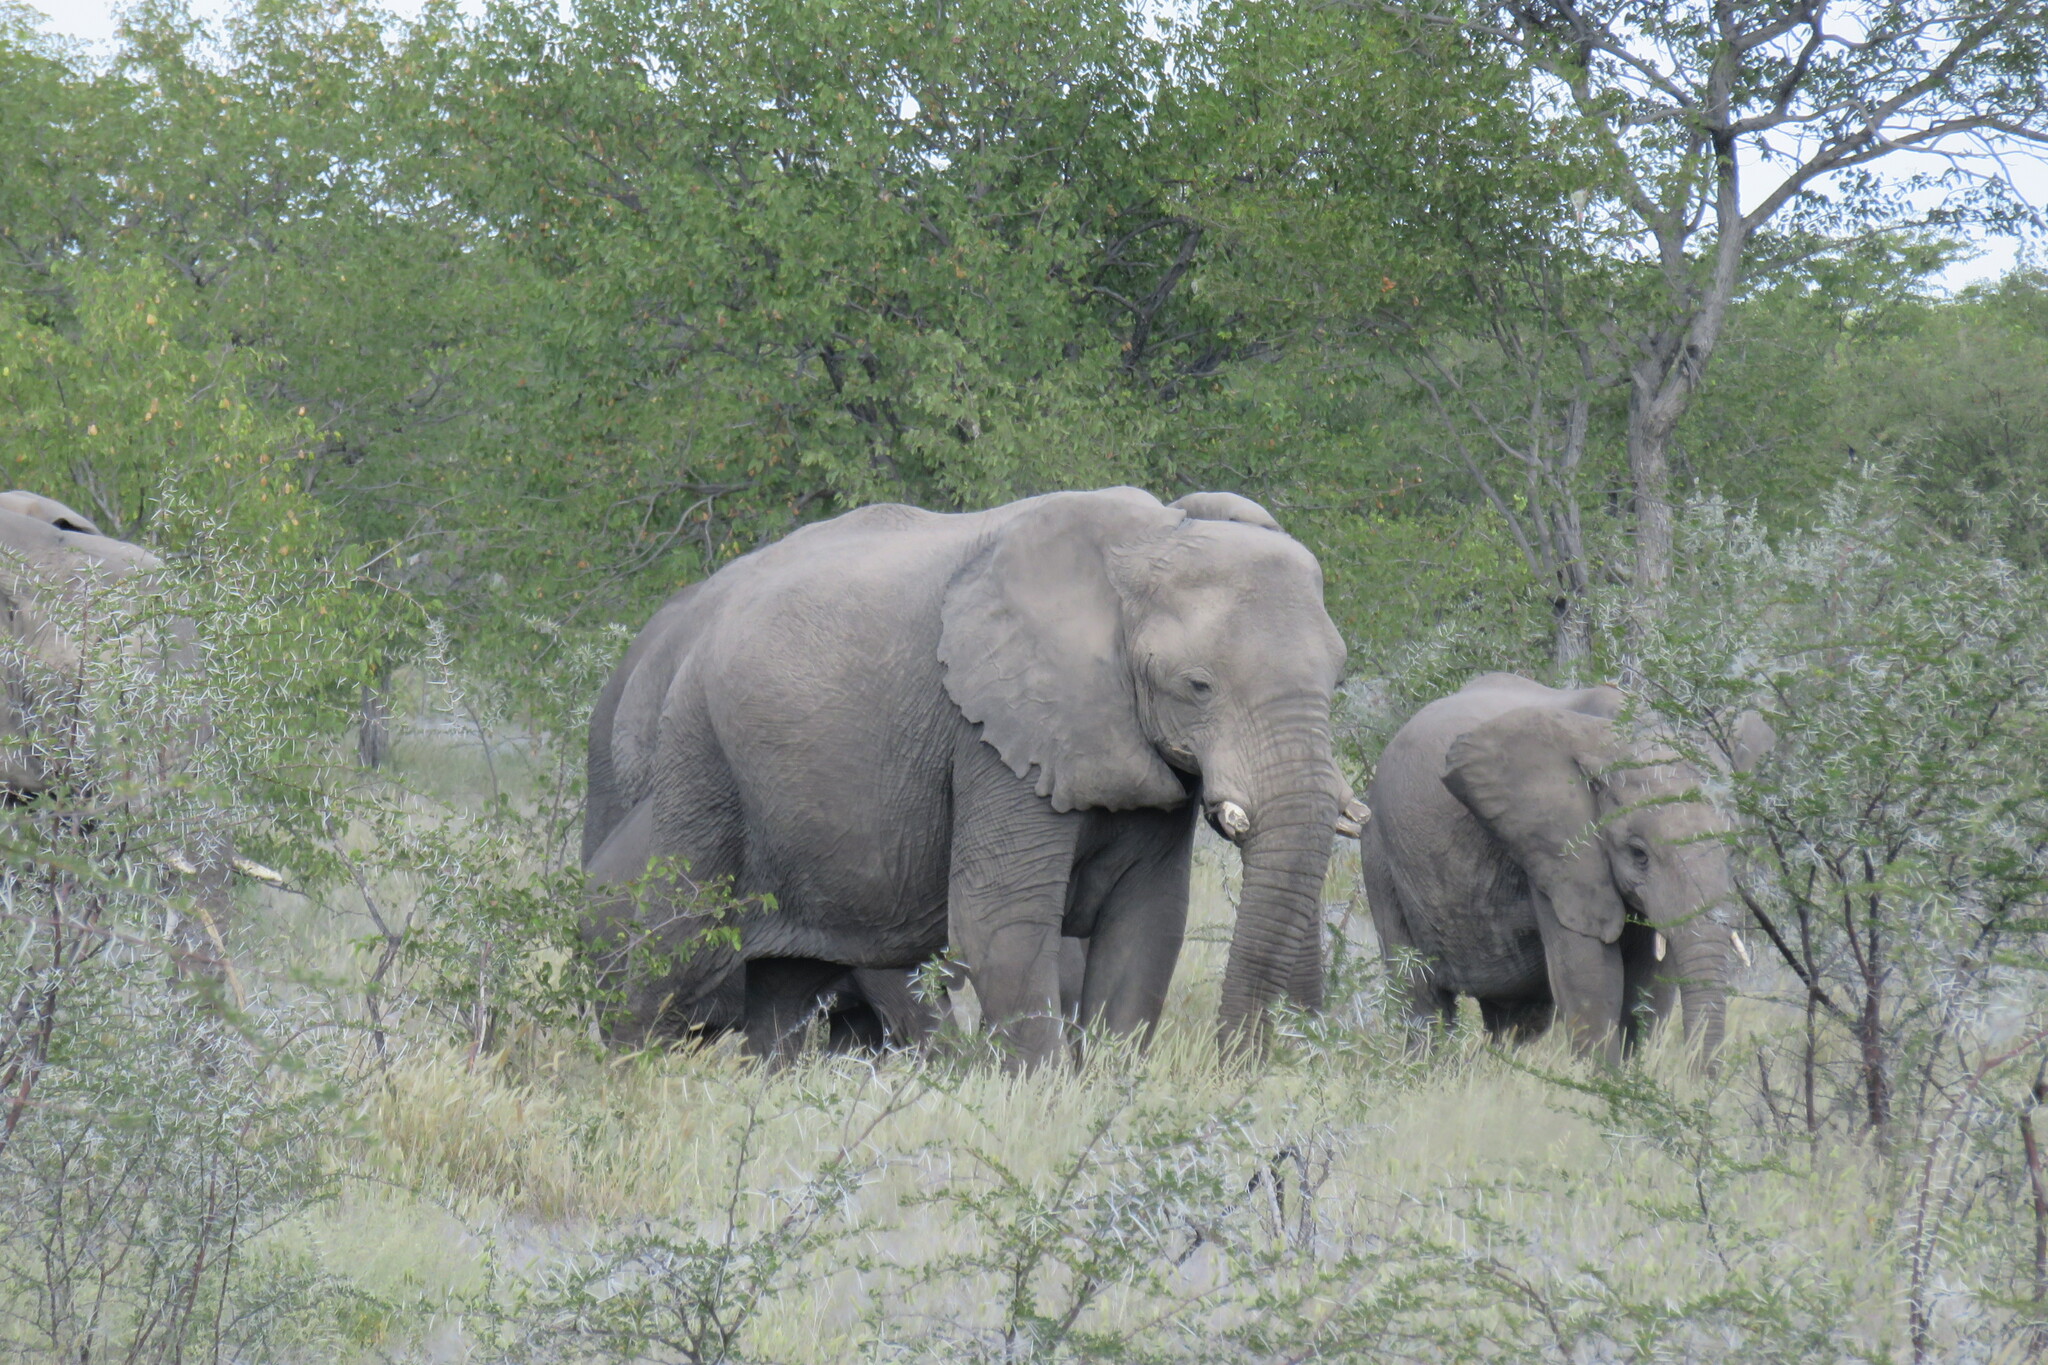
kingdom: Animalia
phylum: Chordata
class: Mammalia
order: Proboscidea
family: Elephantidae
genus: Loxodonta
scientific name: Loxodonta africana
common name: African elephant
